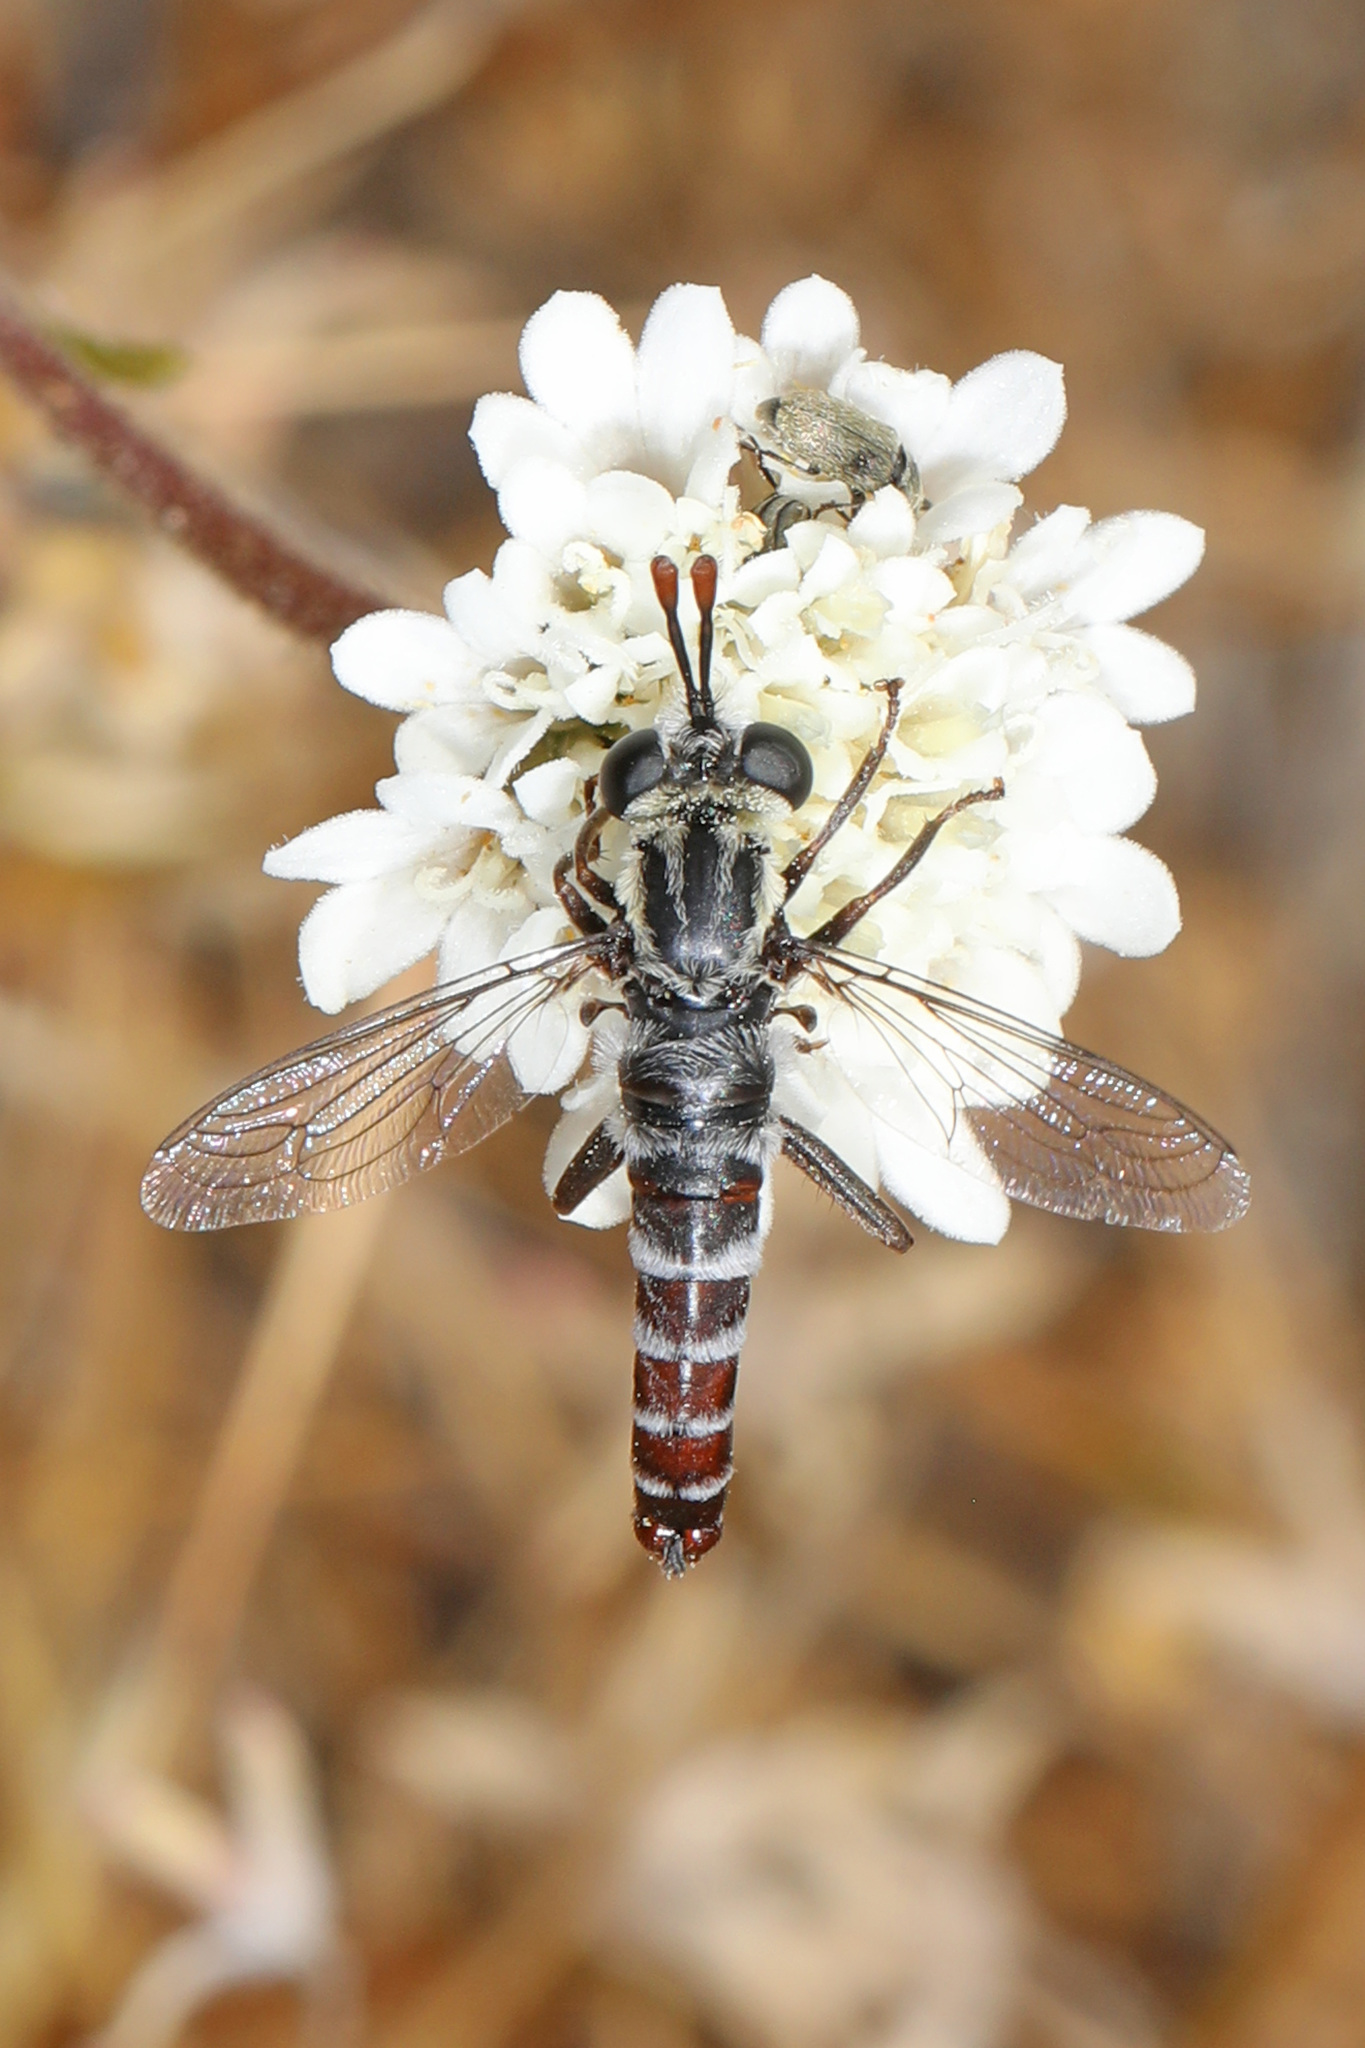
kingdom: Animalia
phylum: Arthropoda
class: Insecta
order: Diptera
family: Mydidae
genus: Pseudonomoneura
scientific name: Pseudonomoneura micheneri
